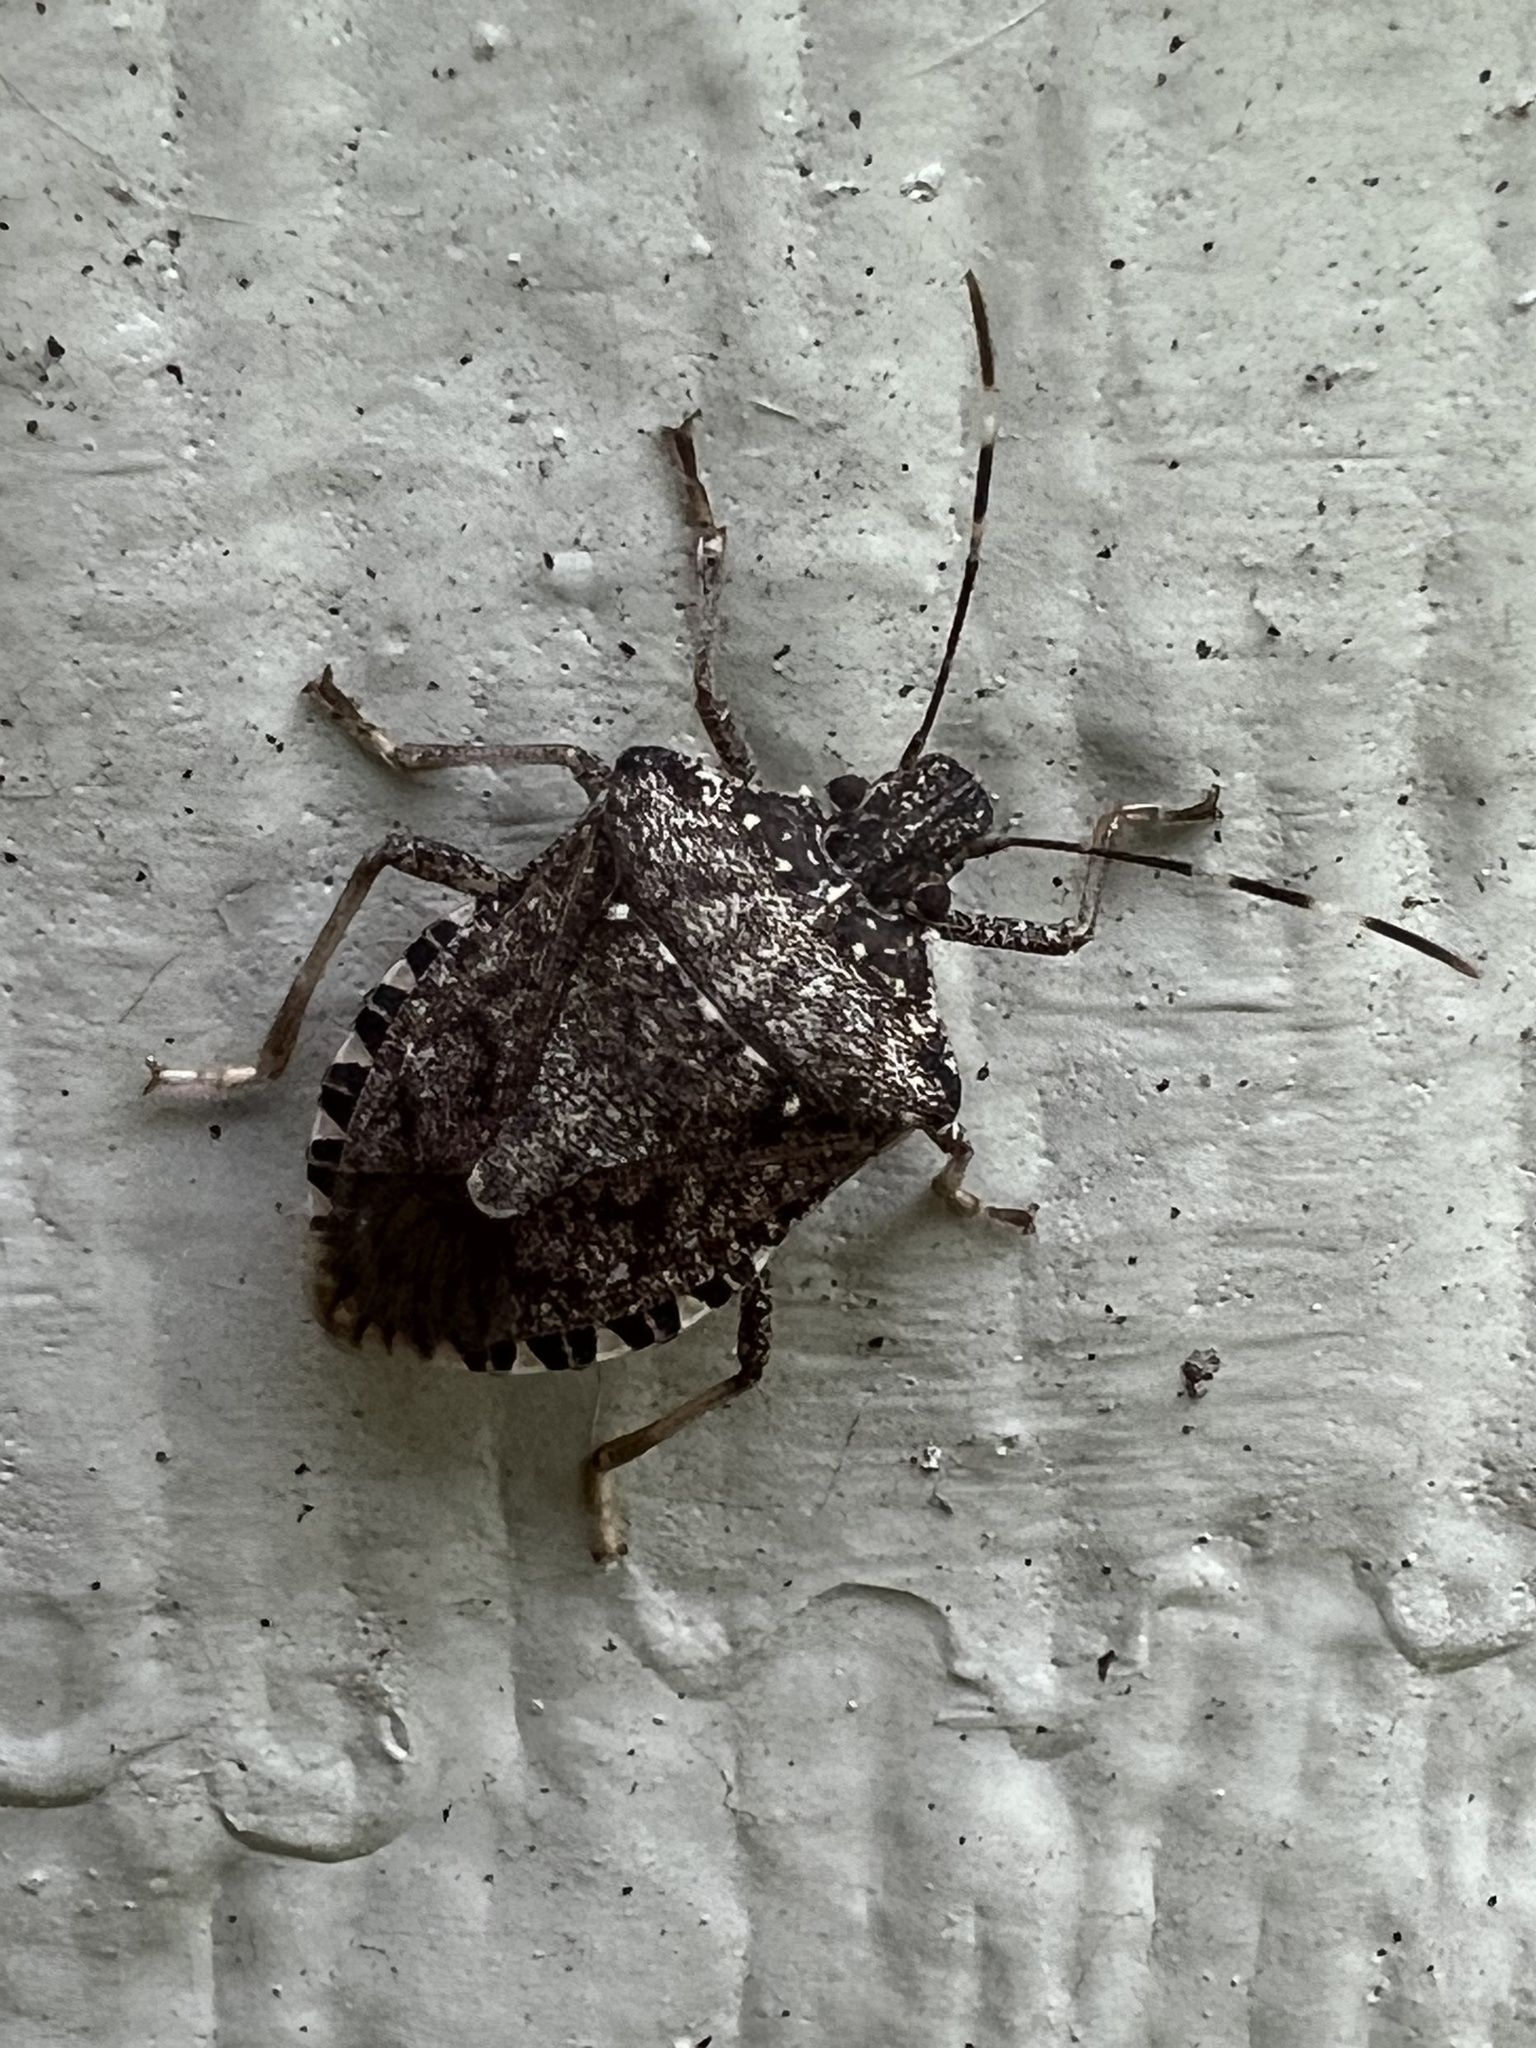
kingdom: Animalia
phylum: Arthropoda
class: Insecta
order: Hemiptera
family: Pentatomidae
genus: Halyomorpha
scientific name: Halyomorpha halys
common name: Brown marmorated stink bug
